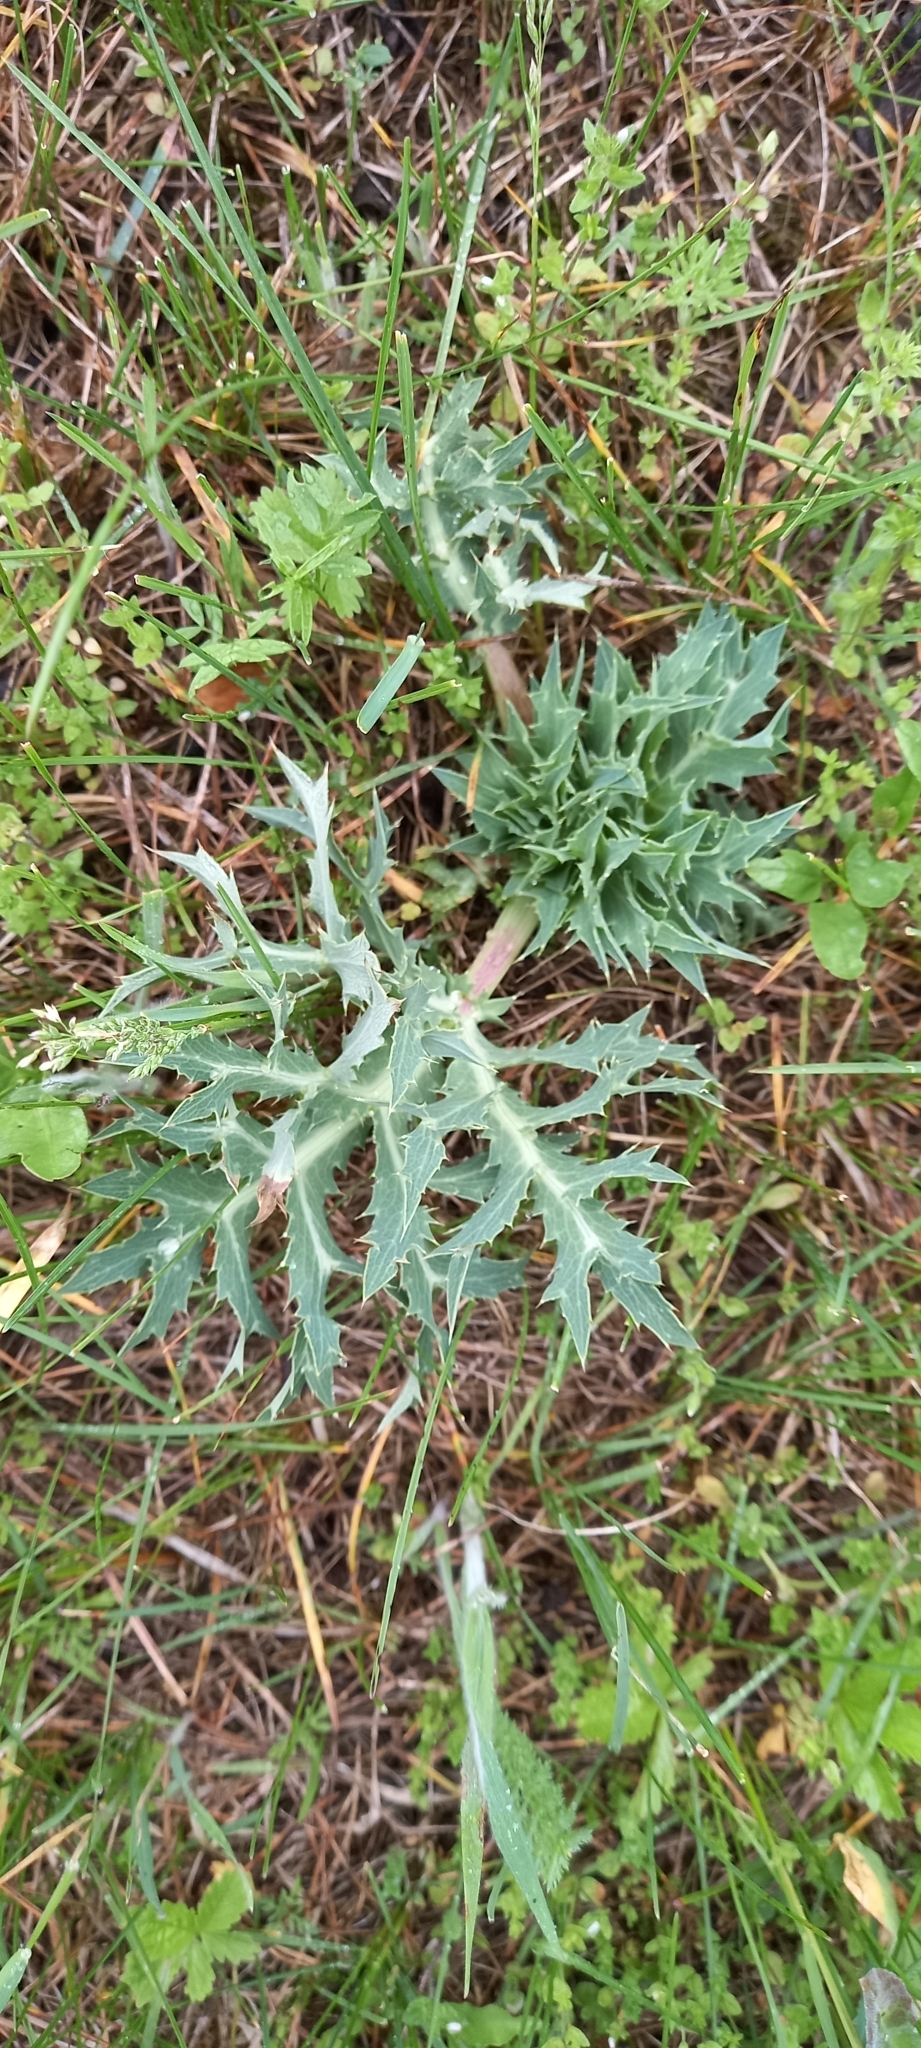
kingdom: Plantae
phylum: Tracheophyta
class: Magnoliopsida
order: Apiales
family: Apiaceae
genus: Eryngium
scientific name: Eryngium campestre
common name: Field eryngo
